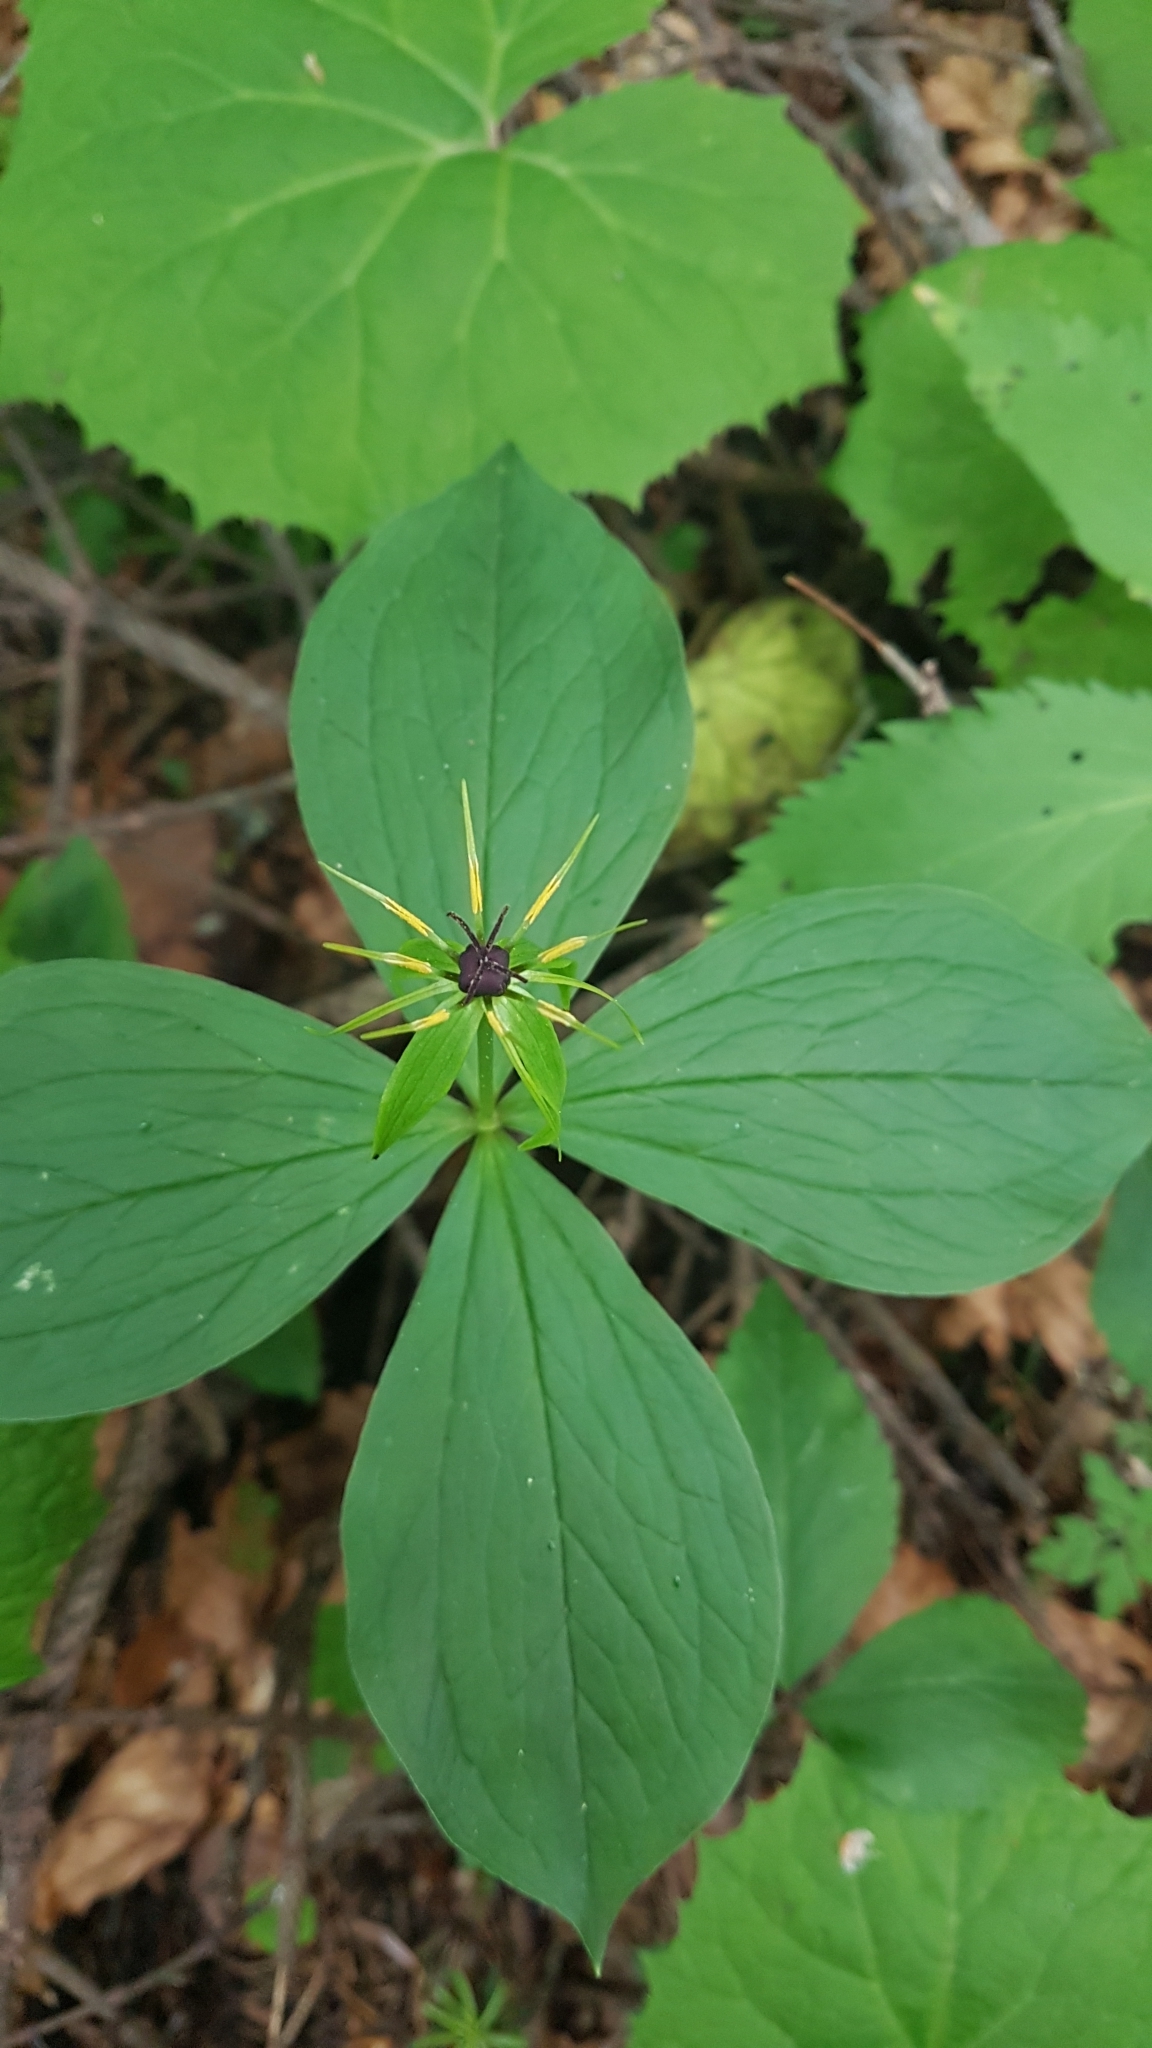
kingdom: Plantae
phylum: Tracheophyta
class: Liliopsida
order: Liliales
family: Melanthiaceae
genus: Paris
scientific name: Paris quadrifolia
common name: Herb-paris
